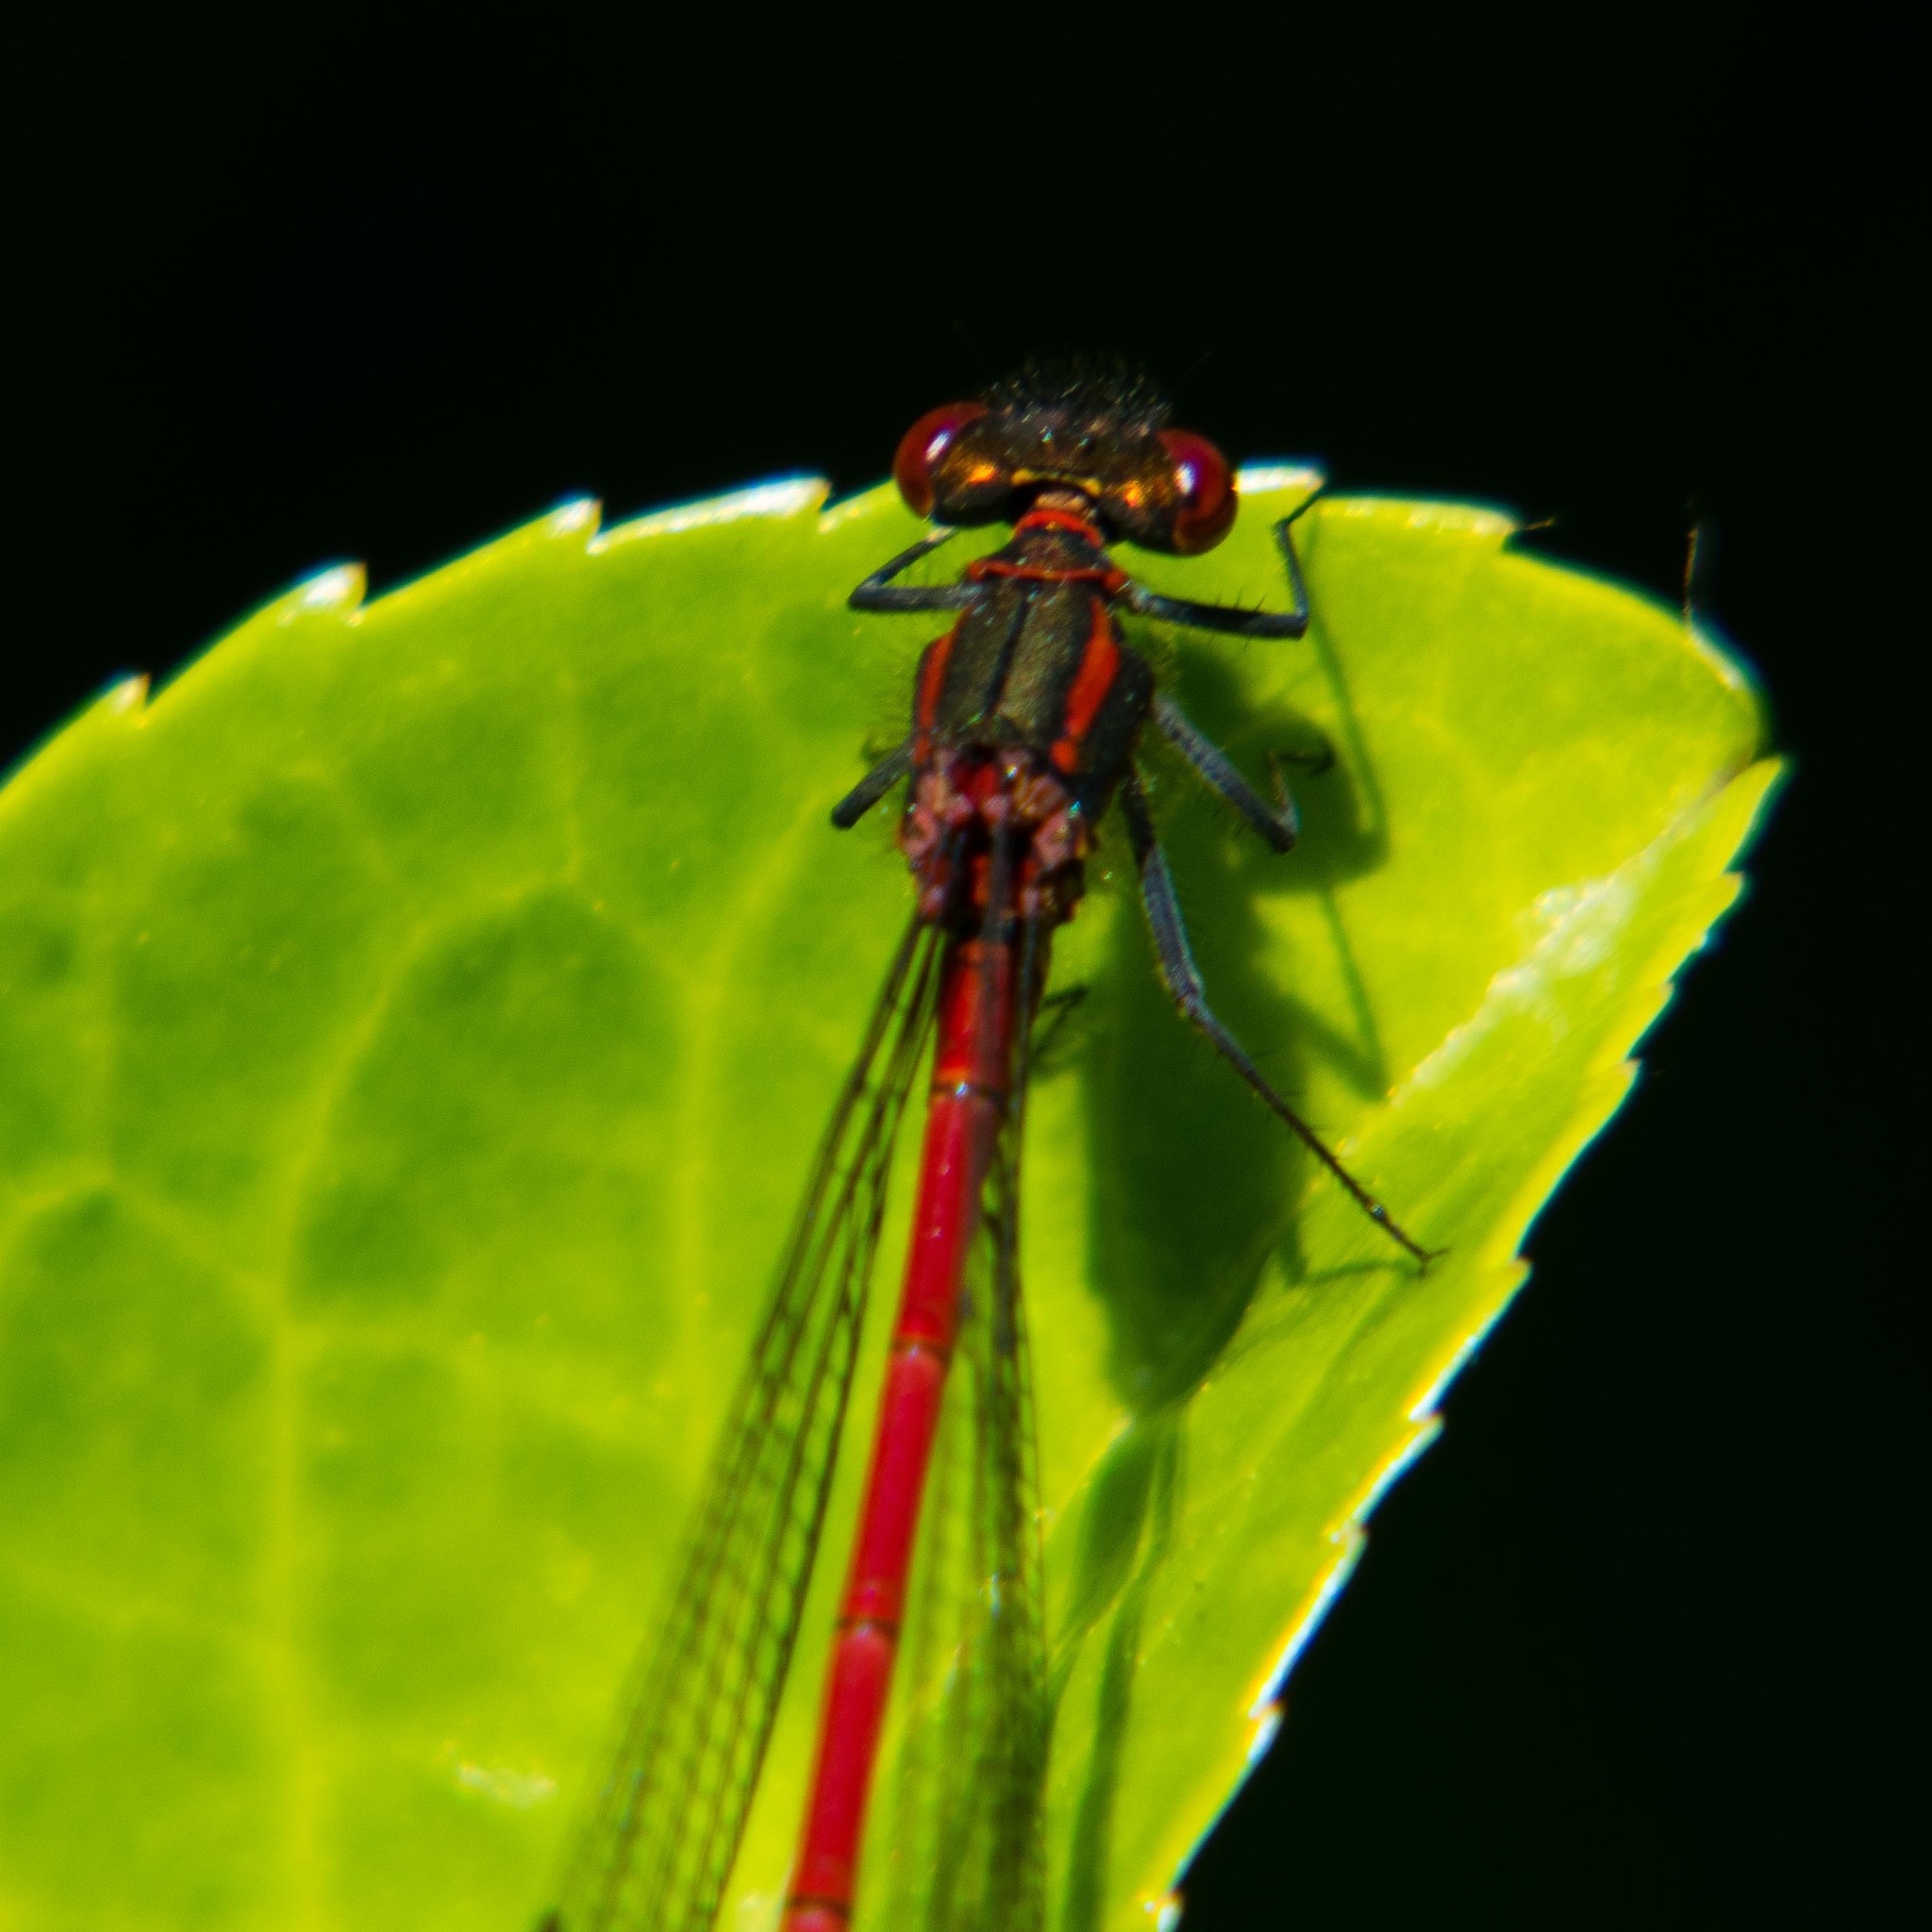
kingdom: Animalia
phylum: Arthropoda
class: Insecta
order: Odonata
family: Coenagrionidae
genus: Pyrrhosoma
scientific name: Pyrrhosoma nymphula
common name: Large red damsel
